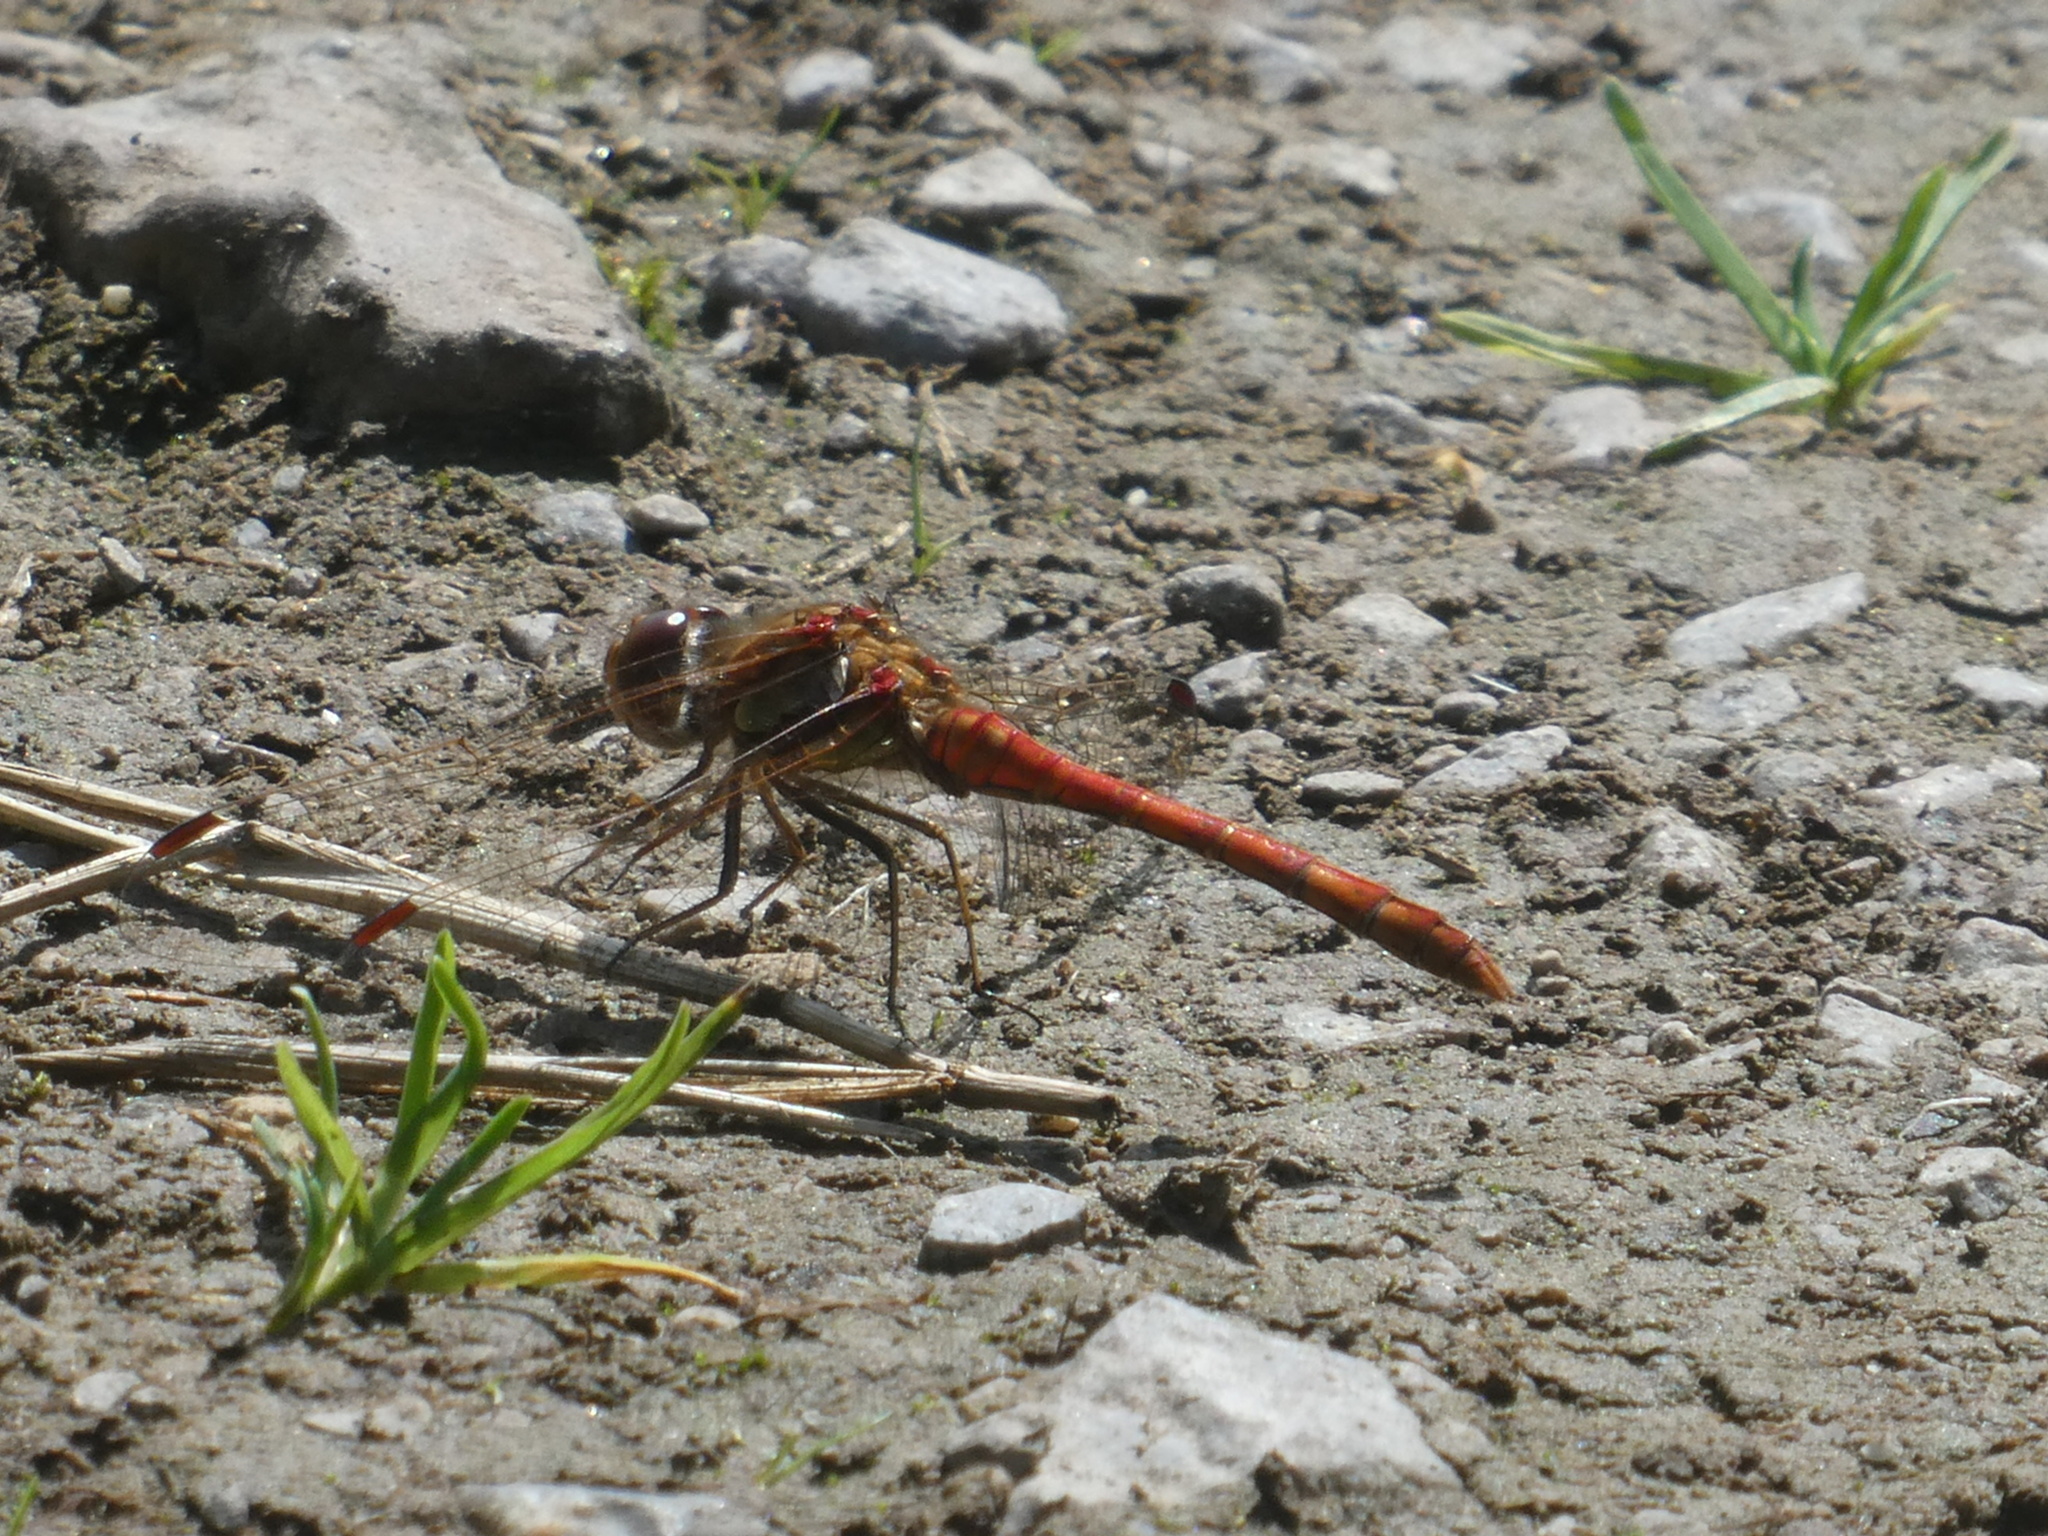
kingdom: Animalia
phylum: Arthropoda
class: Insecta
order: Odonata
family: Libellulidae
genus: Sympetrum
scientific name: Sympetrum striolatum
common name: Common darter
